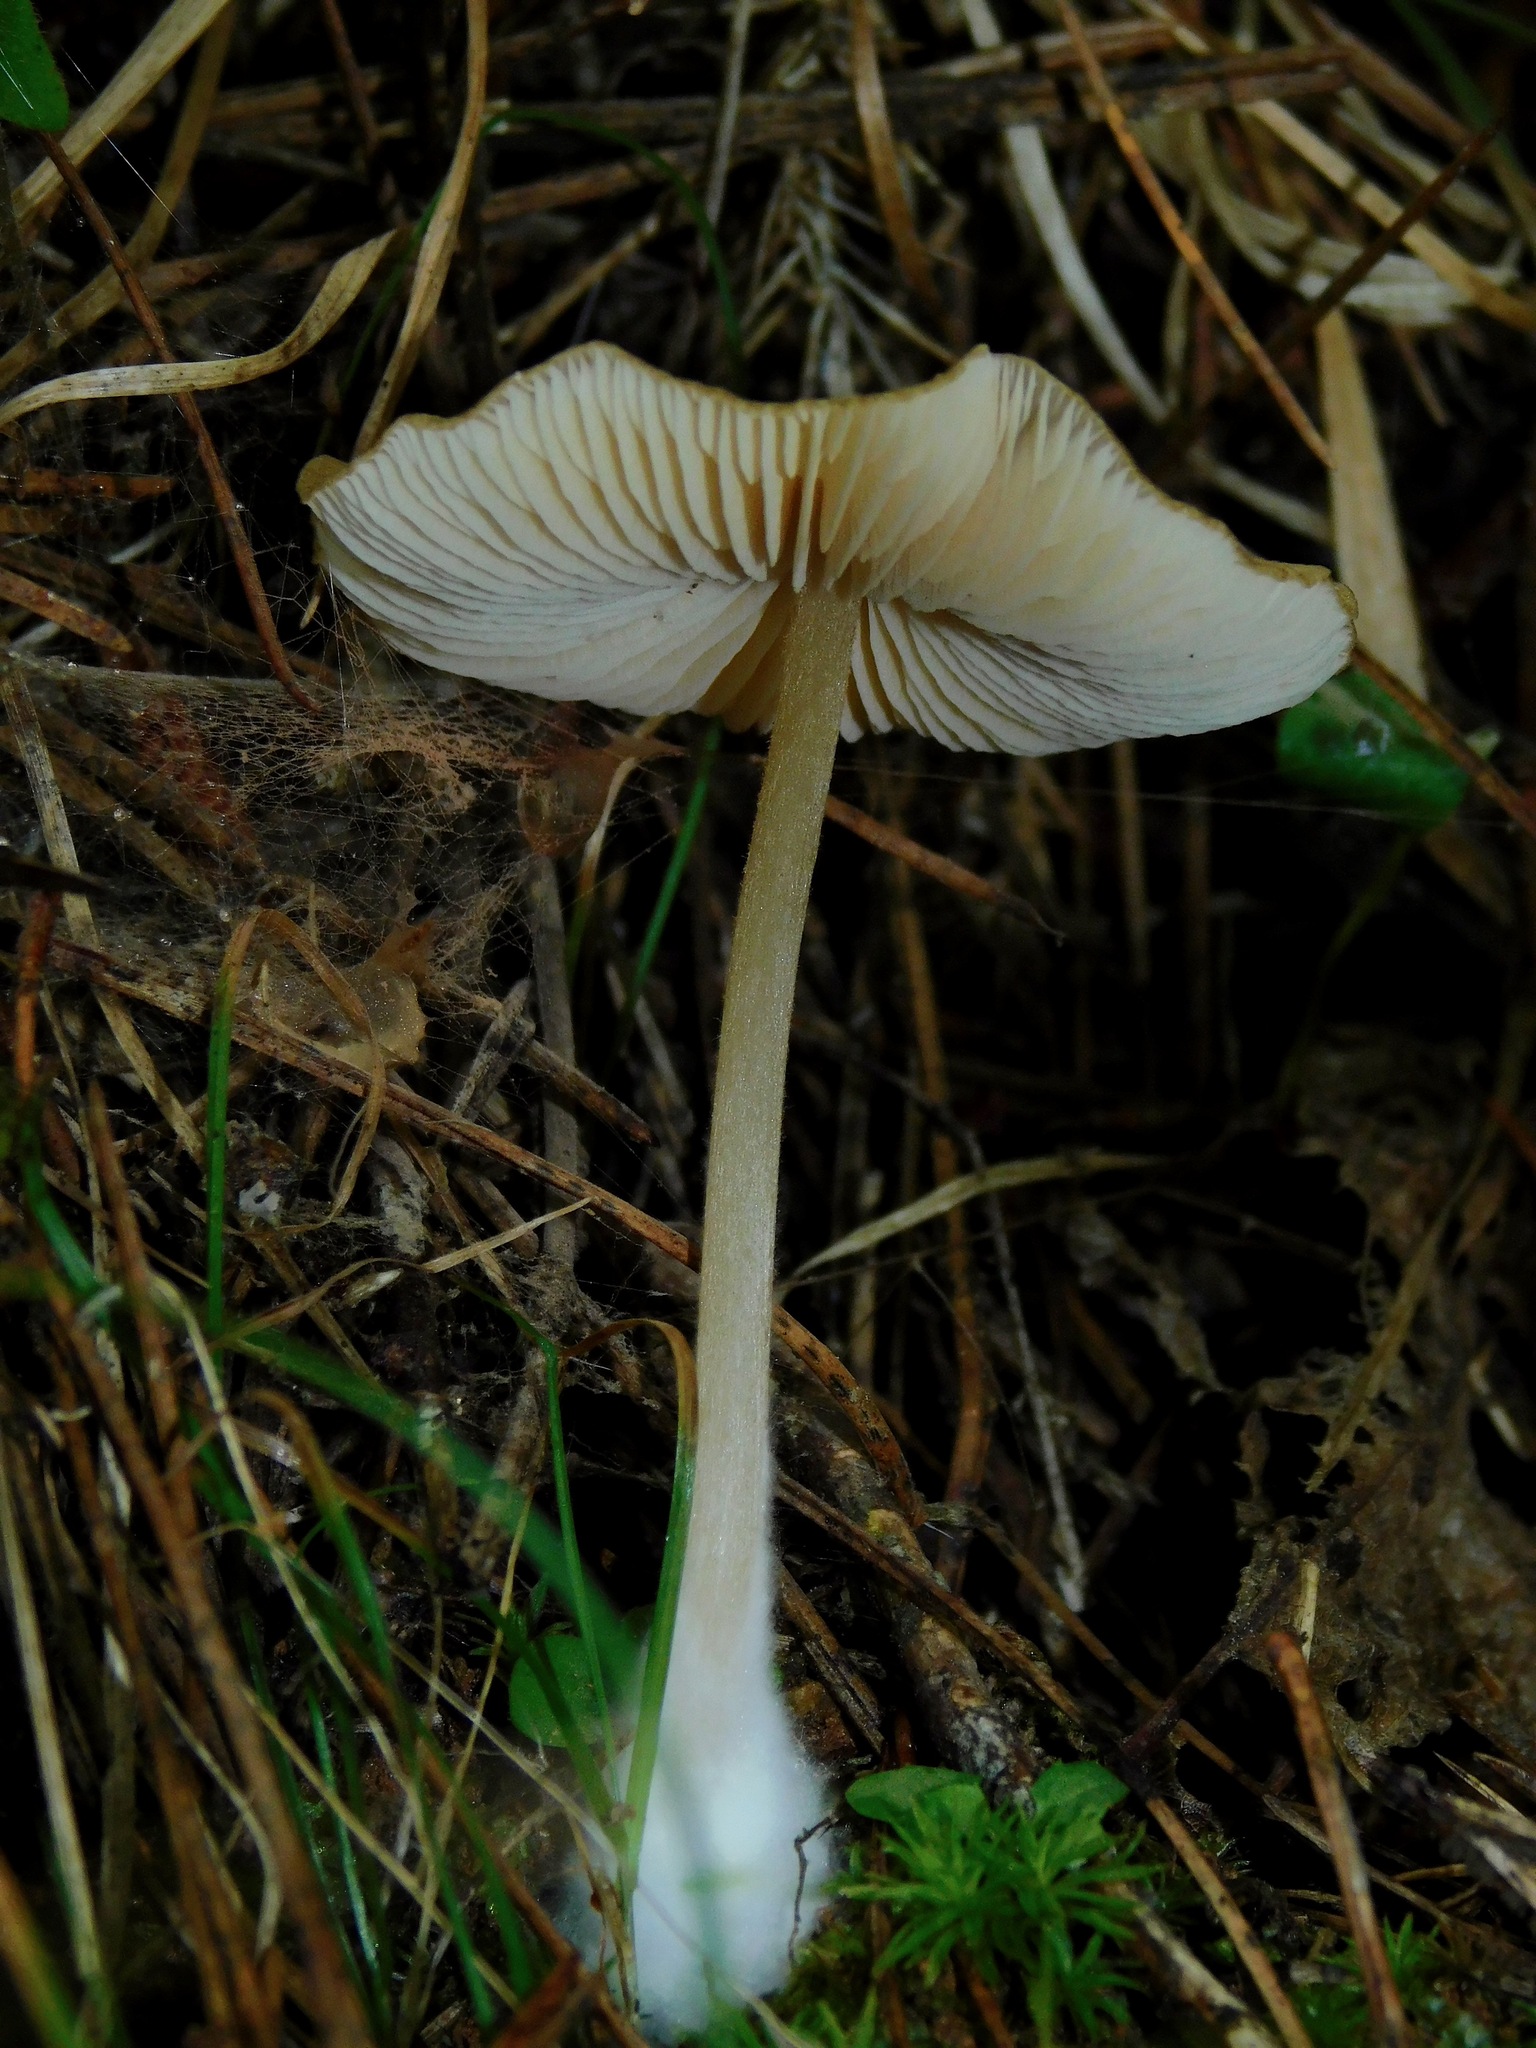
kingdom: Fungi
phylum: Basidiomycota
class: Agaricomycetes
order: Agaricales
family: Physalacriaceae
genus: Hymenopellis
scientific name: Hymenopellis furfuracea
